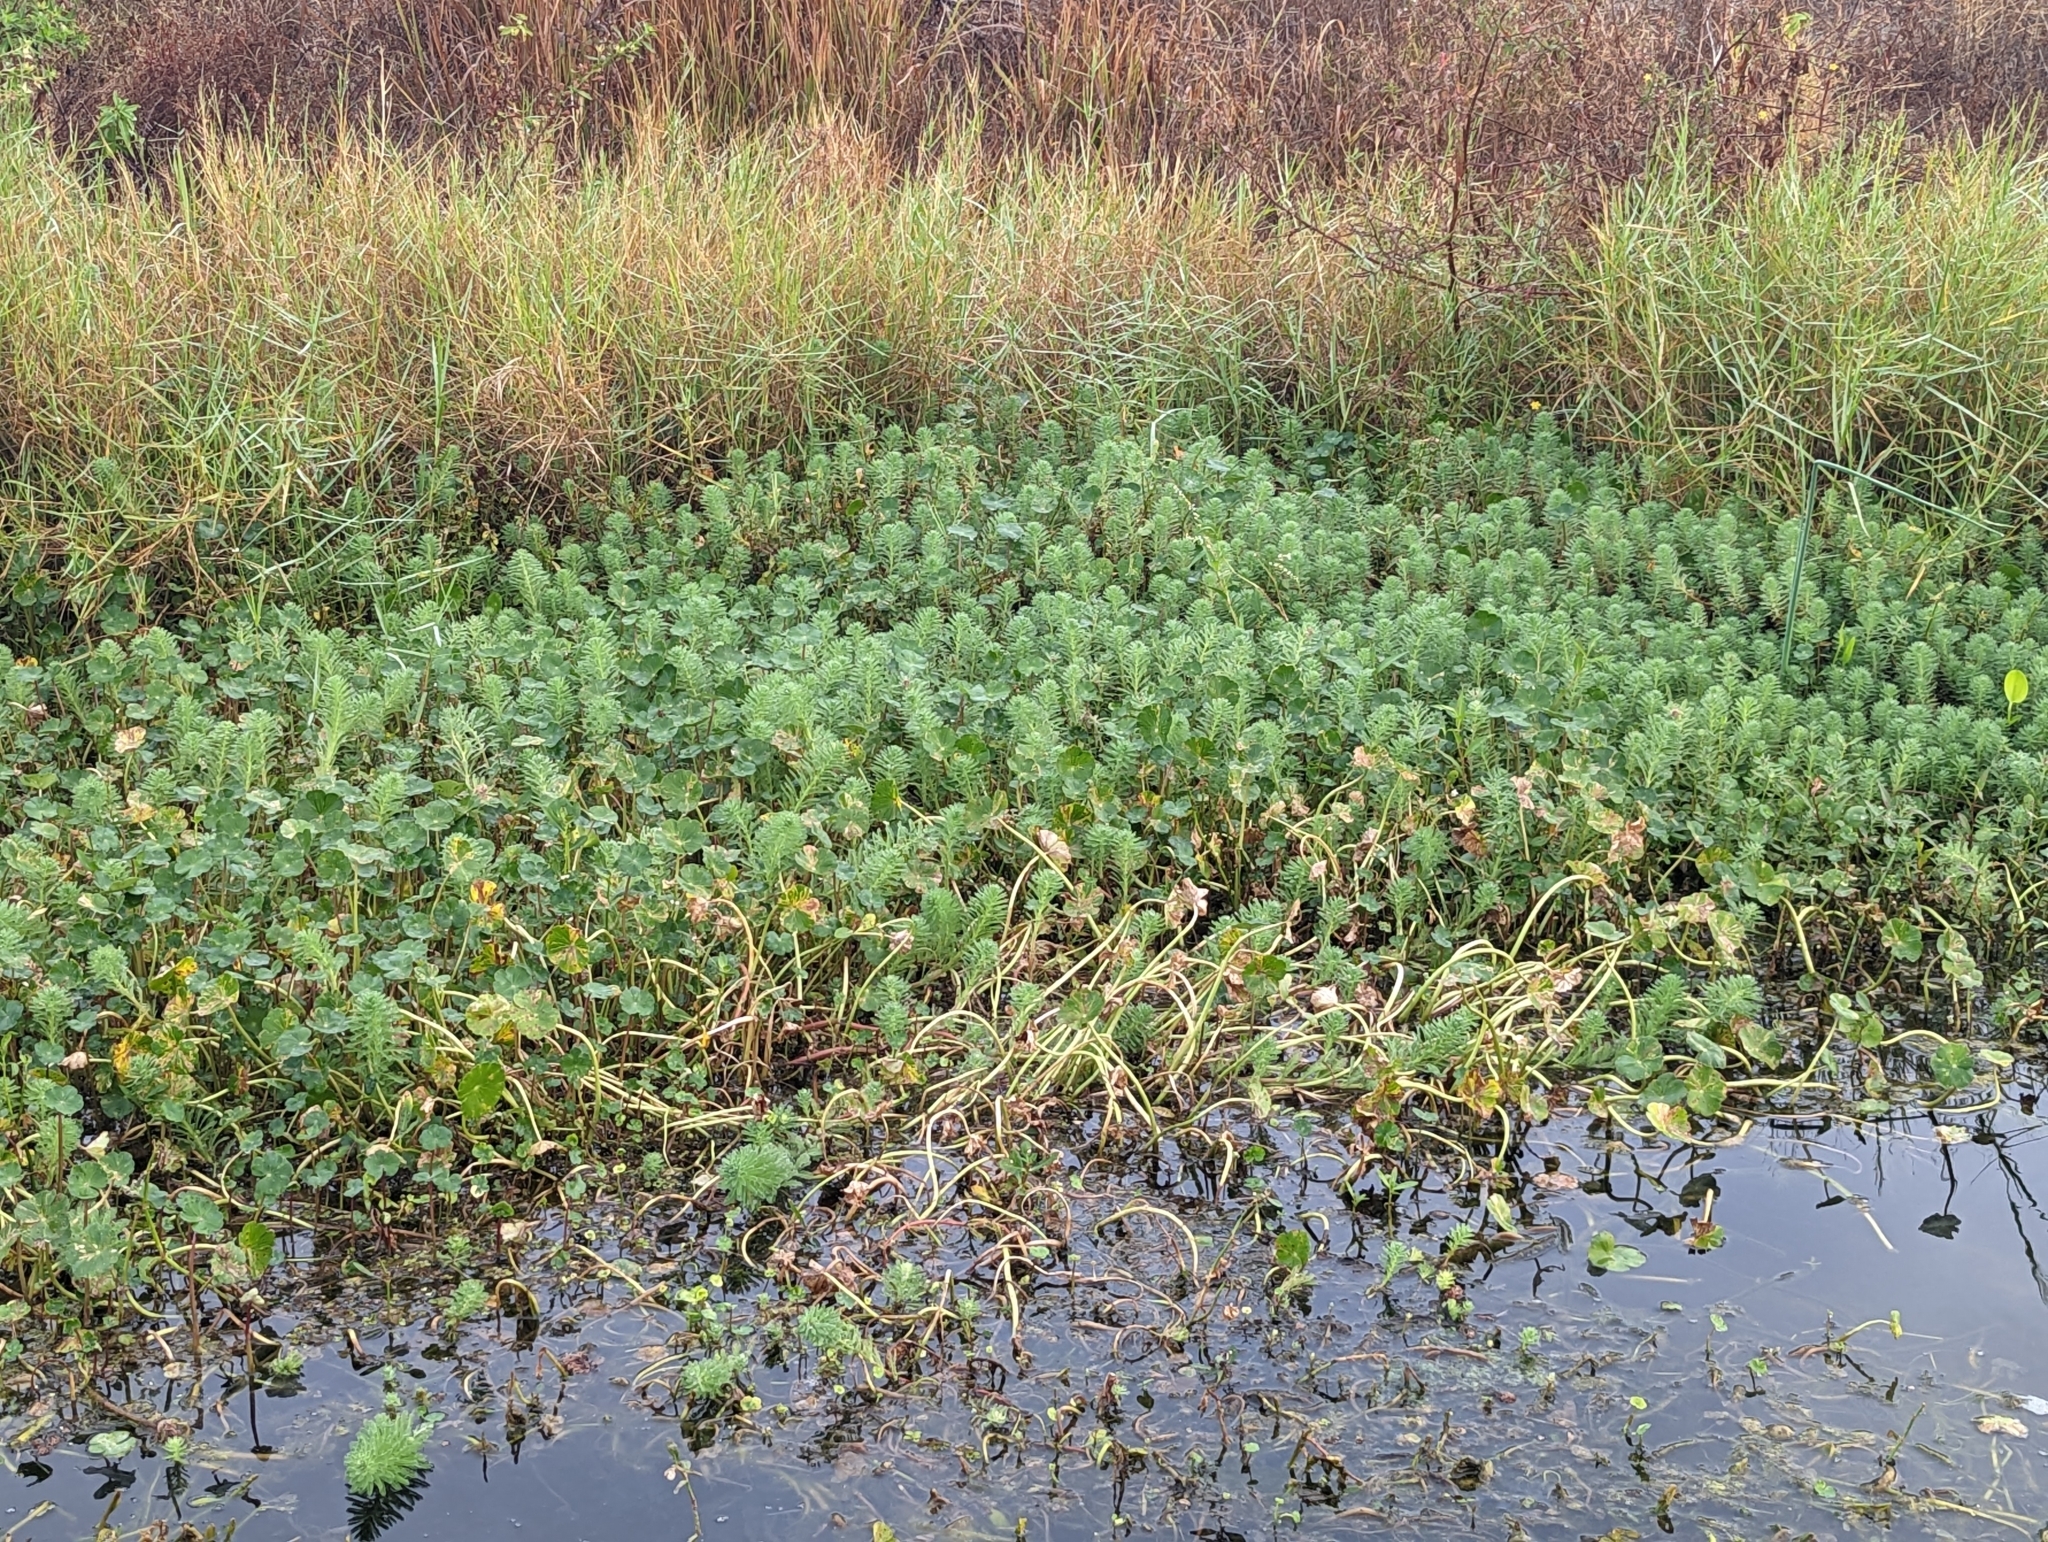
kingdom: Plantae
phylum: Tracheophyta
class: Magnoliopsida
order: Saxifragales
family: Haloragaceae
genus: Myriophyllum
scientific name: Myriophyllum aquaticum
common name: Parrot's feather
